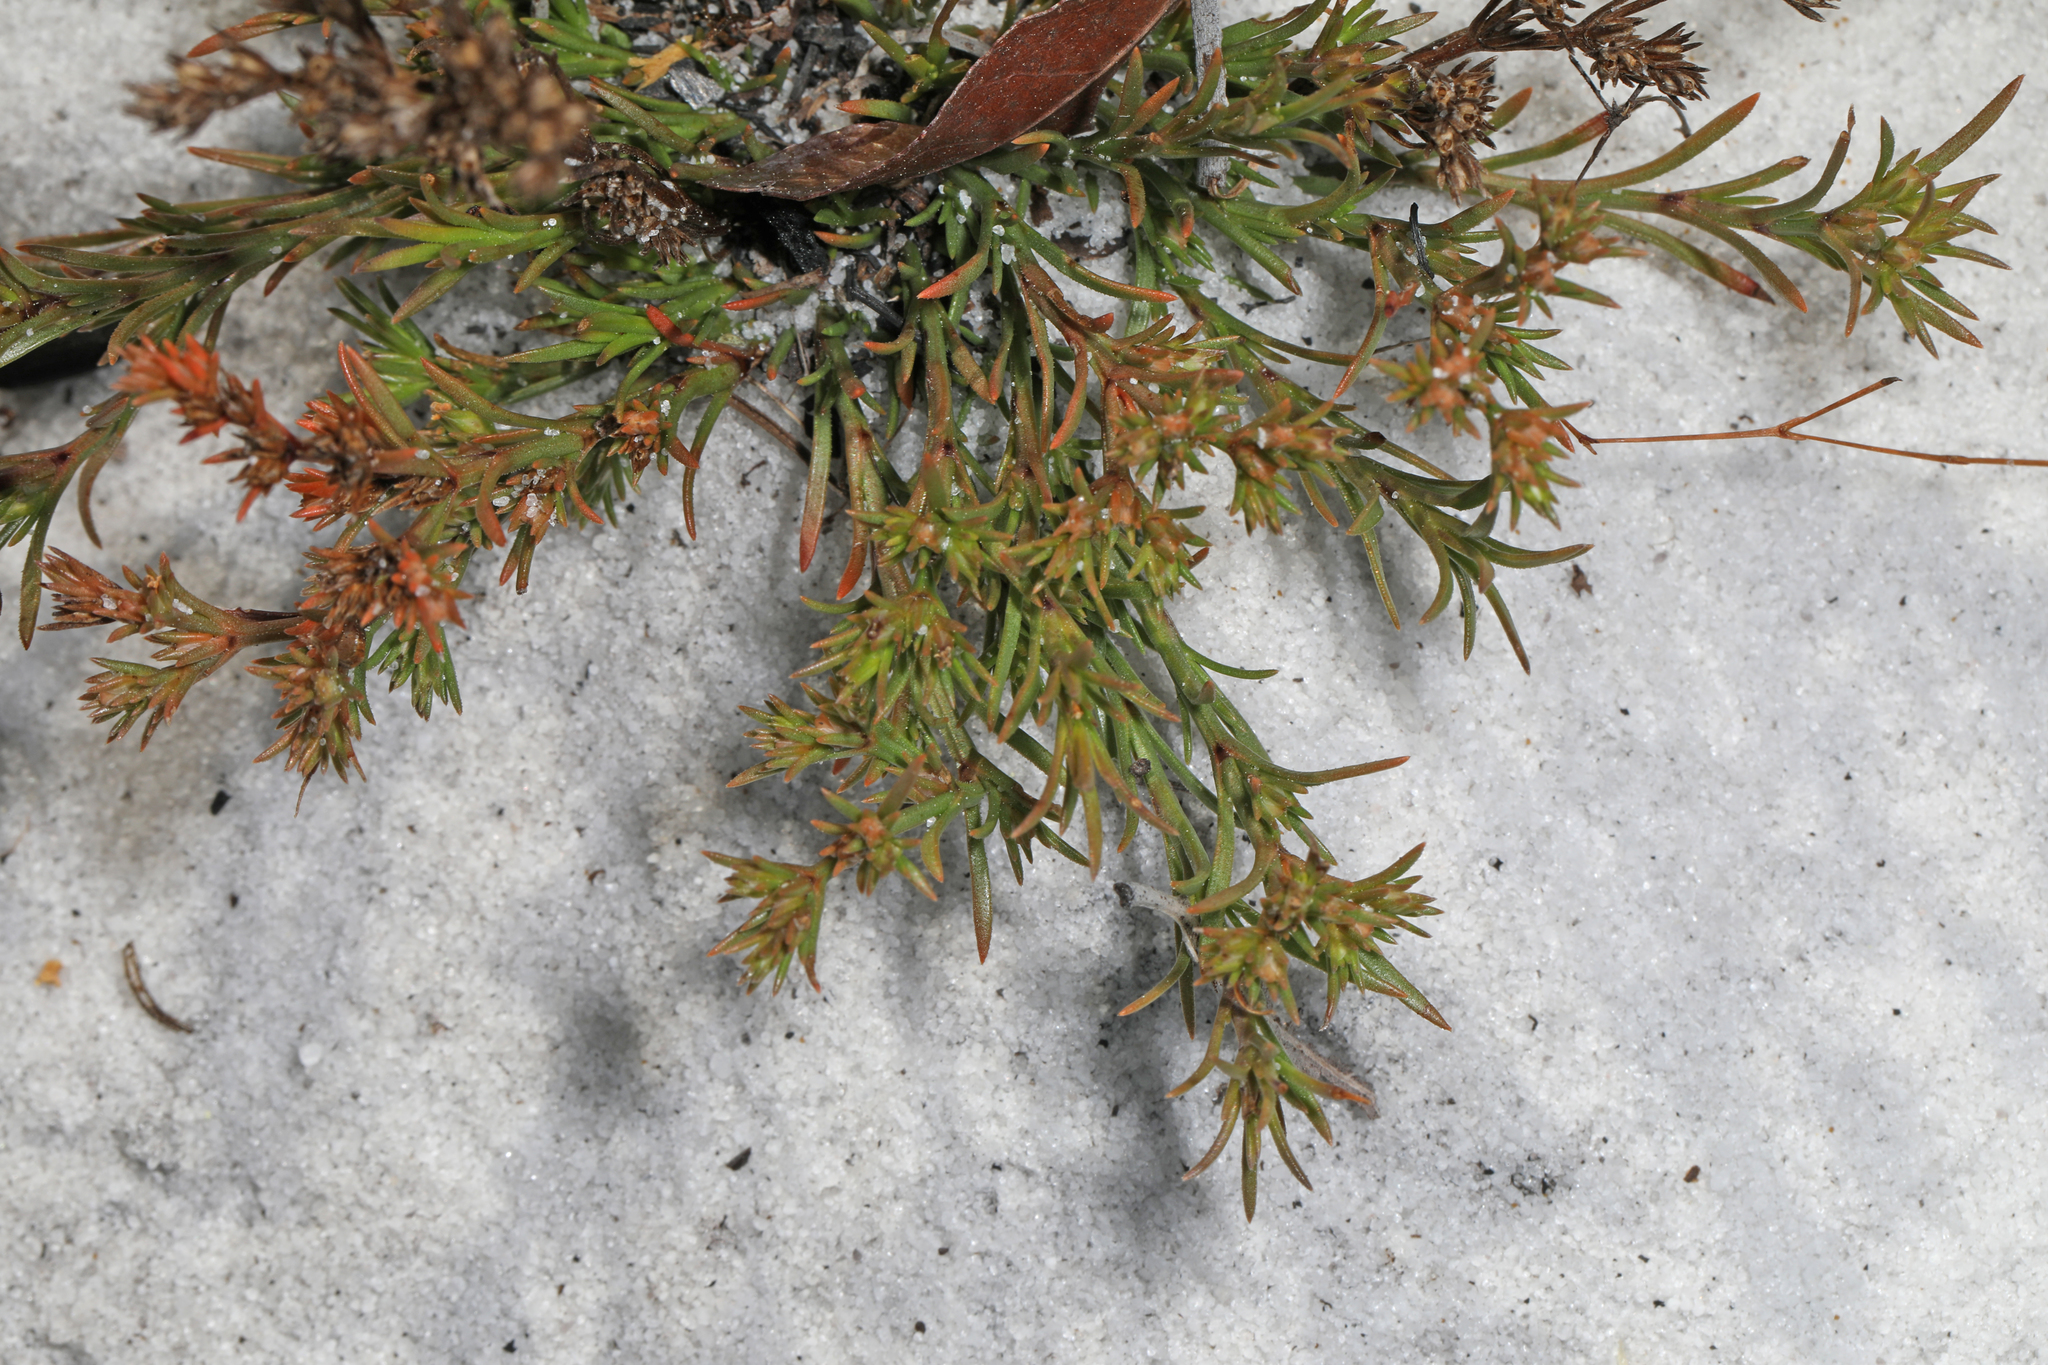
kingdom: Plantae
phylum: Tracheophyta
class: Magnoliopsida
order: Lamiales
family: Tetrachondraceae
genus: Polypremum
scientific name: Polypremum procumbens
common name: Juniper-leaf
